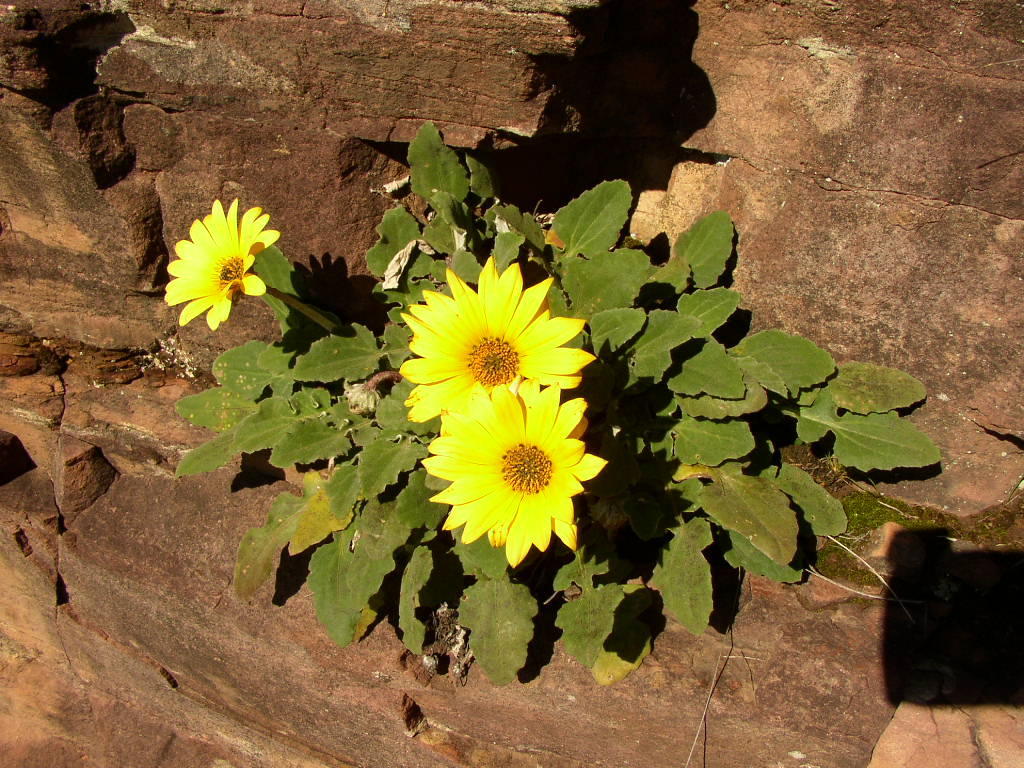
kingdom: Plantae
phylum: Tracheophyta
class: Magnoliopsida
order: Asterales
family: Asteraceae
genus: Arctotis
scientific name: Arctotis acaulis
